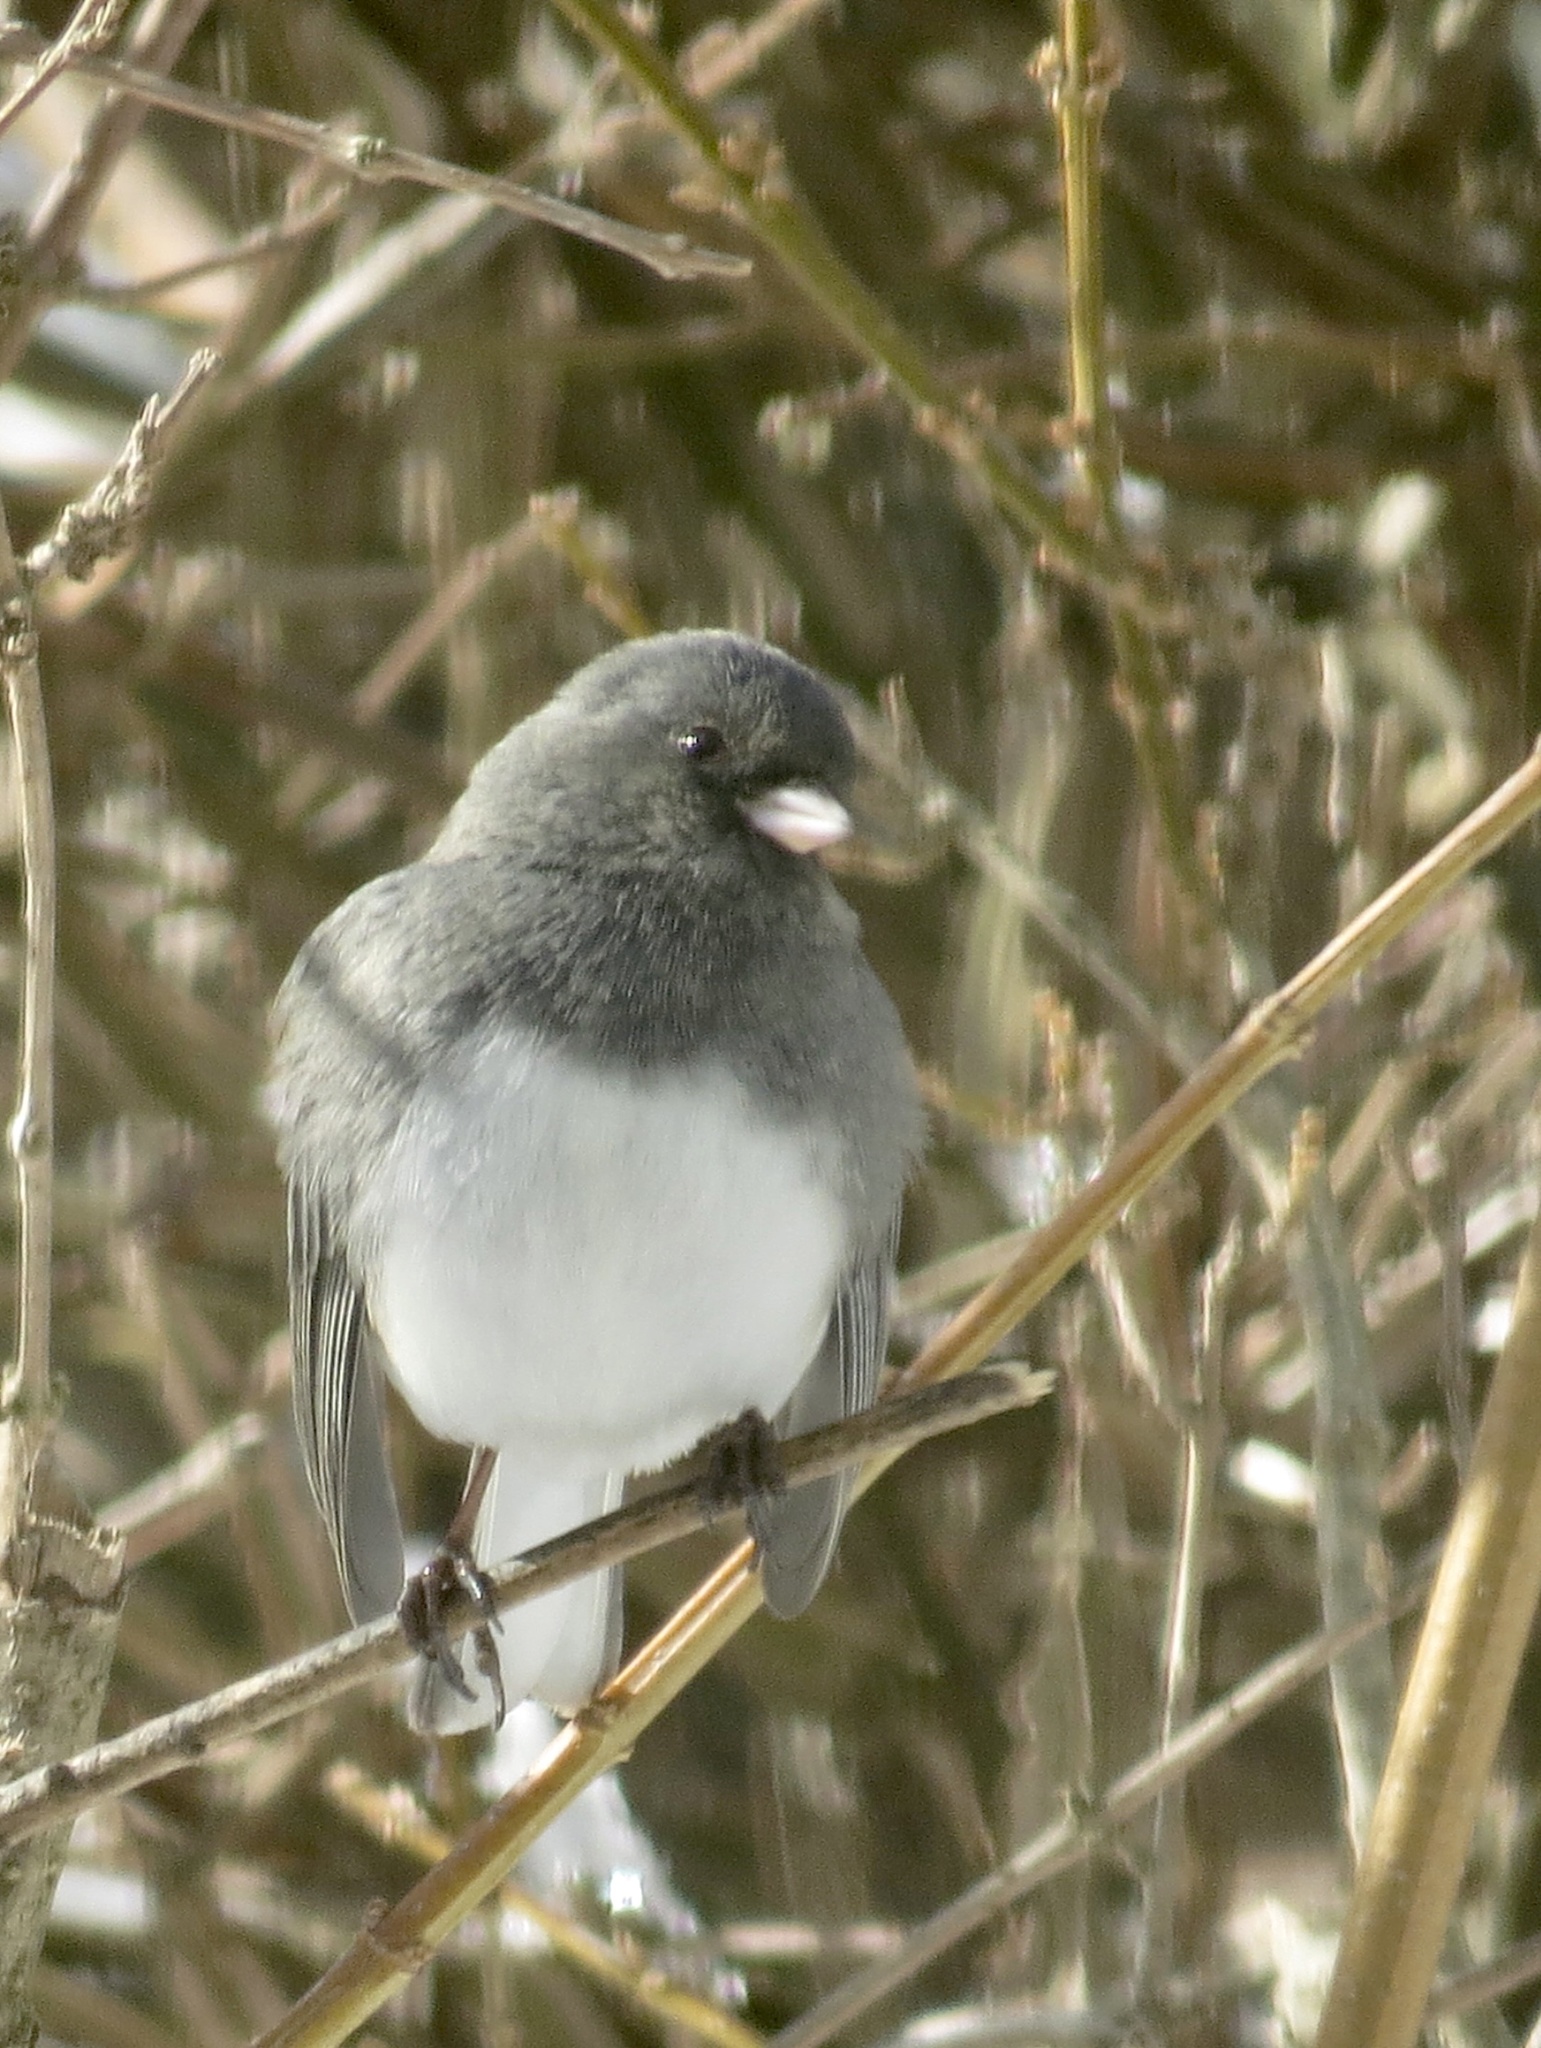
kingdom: Animalia
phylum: Chordata
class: Aves
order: Passeriformes
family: Passerellidae
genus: Junco
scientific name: Junco hyemalis
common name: Dark-eyed junco
